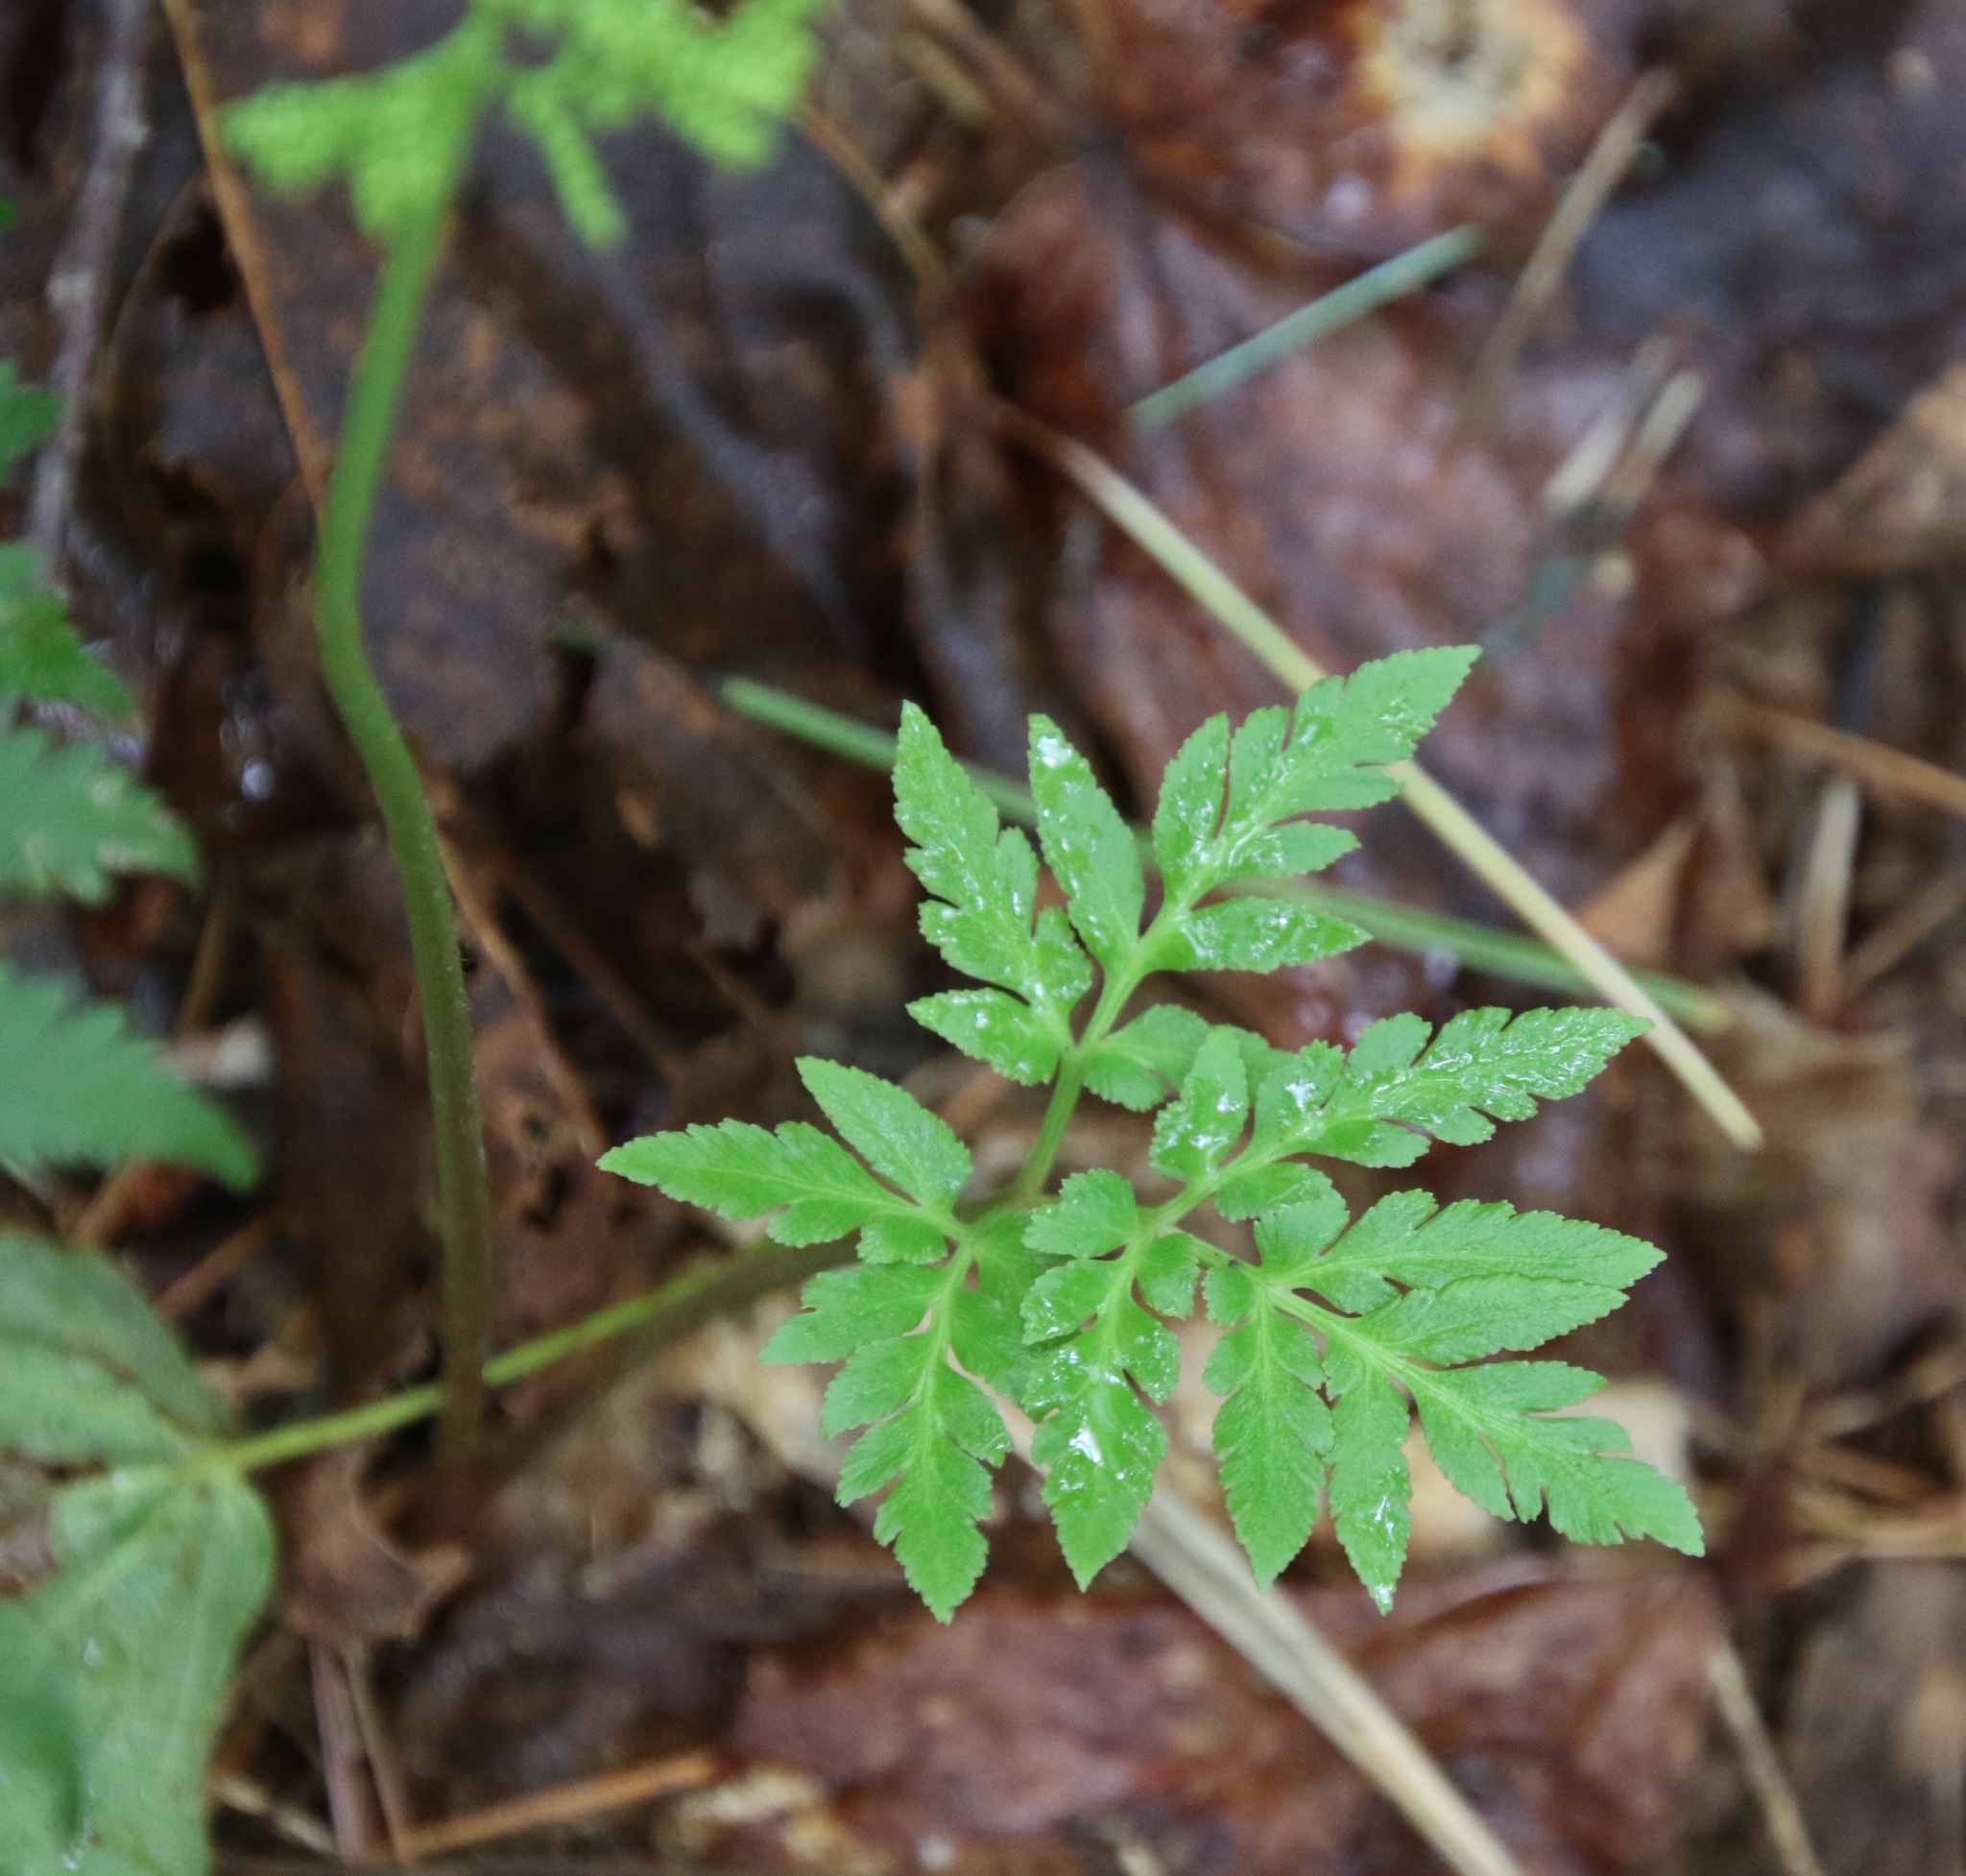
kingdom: Plantae
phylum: Tracheophyta
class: Polypodiopsida
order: Ophioglossales
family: Ophioglossaceae
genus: Sceptridium
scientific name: Sceptridium dissectum
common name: Cut-leaved grapefern
